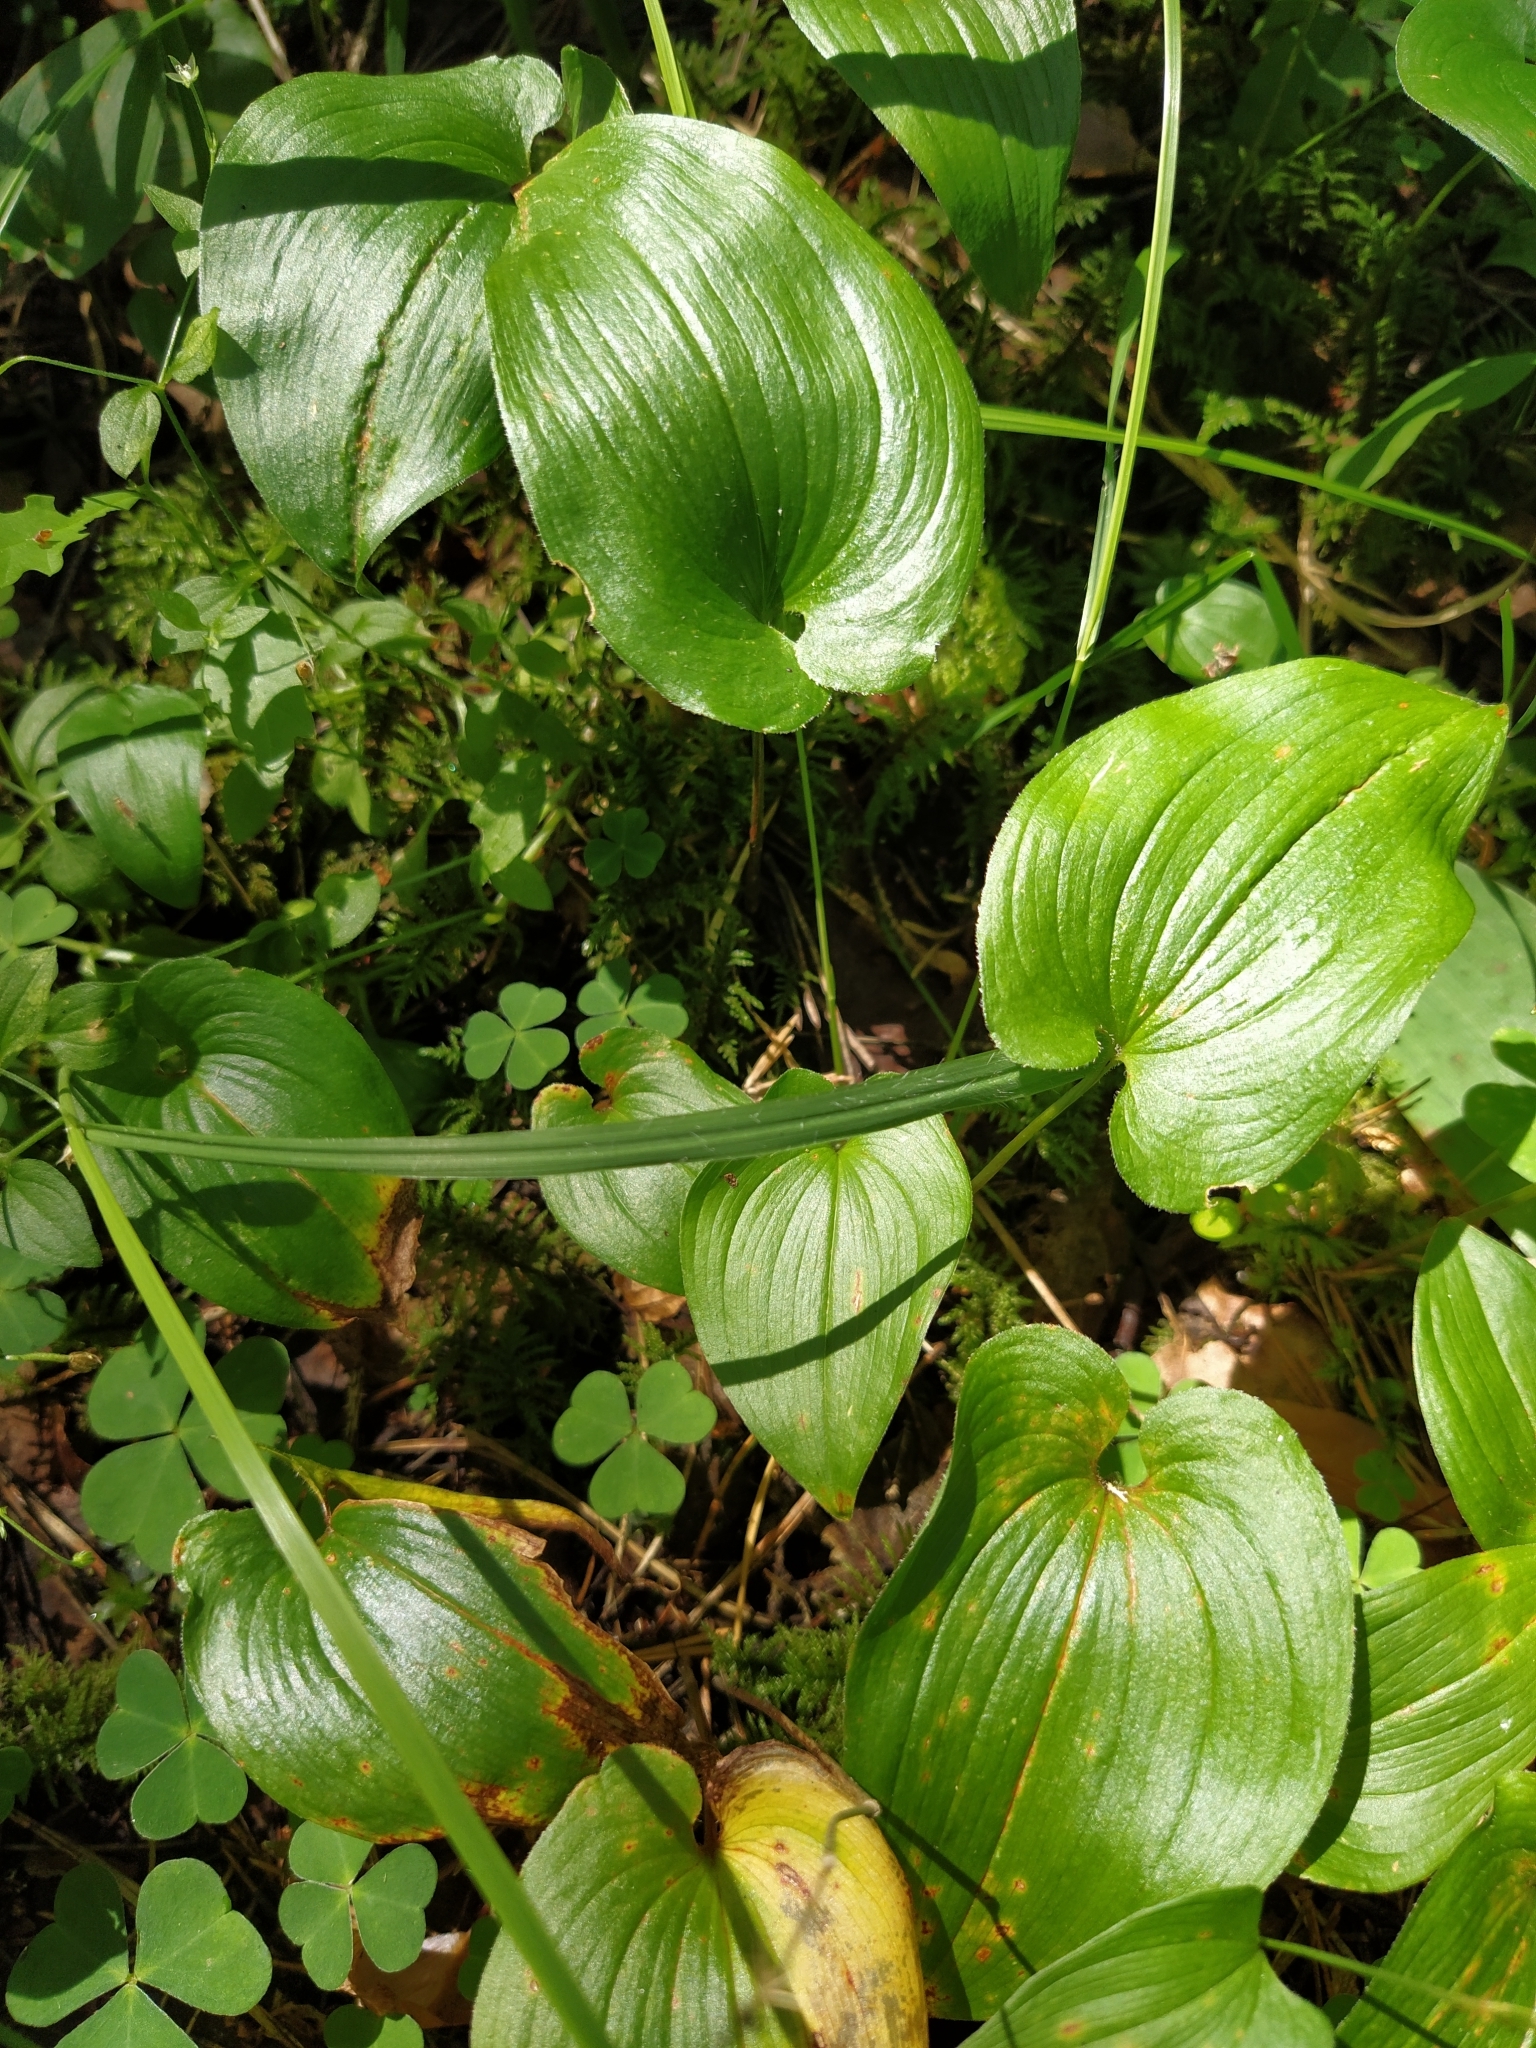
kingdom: Plantae
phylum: Tracheophyta
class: Liliopsida
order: Asparagales
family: Asparagaceae
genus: Maianthemum
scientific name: Maianthemum bifolium
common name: May lily
